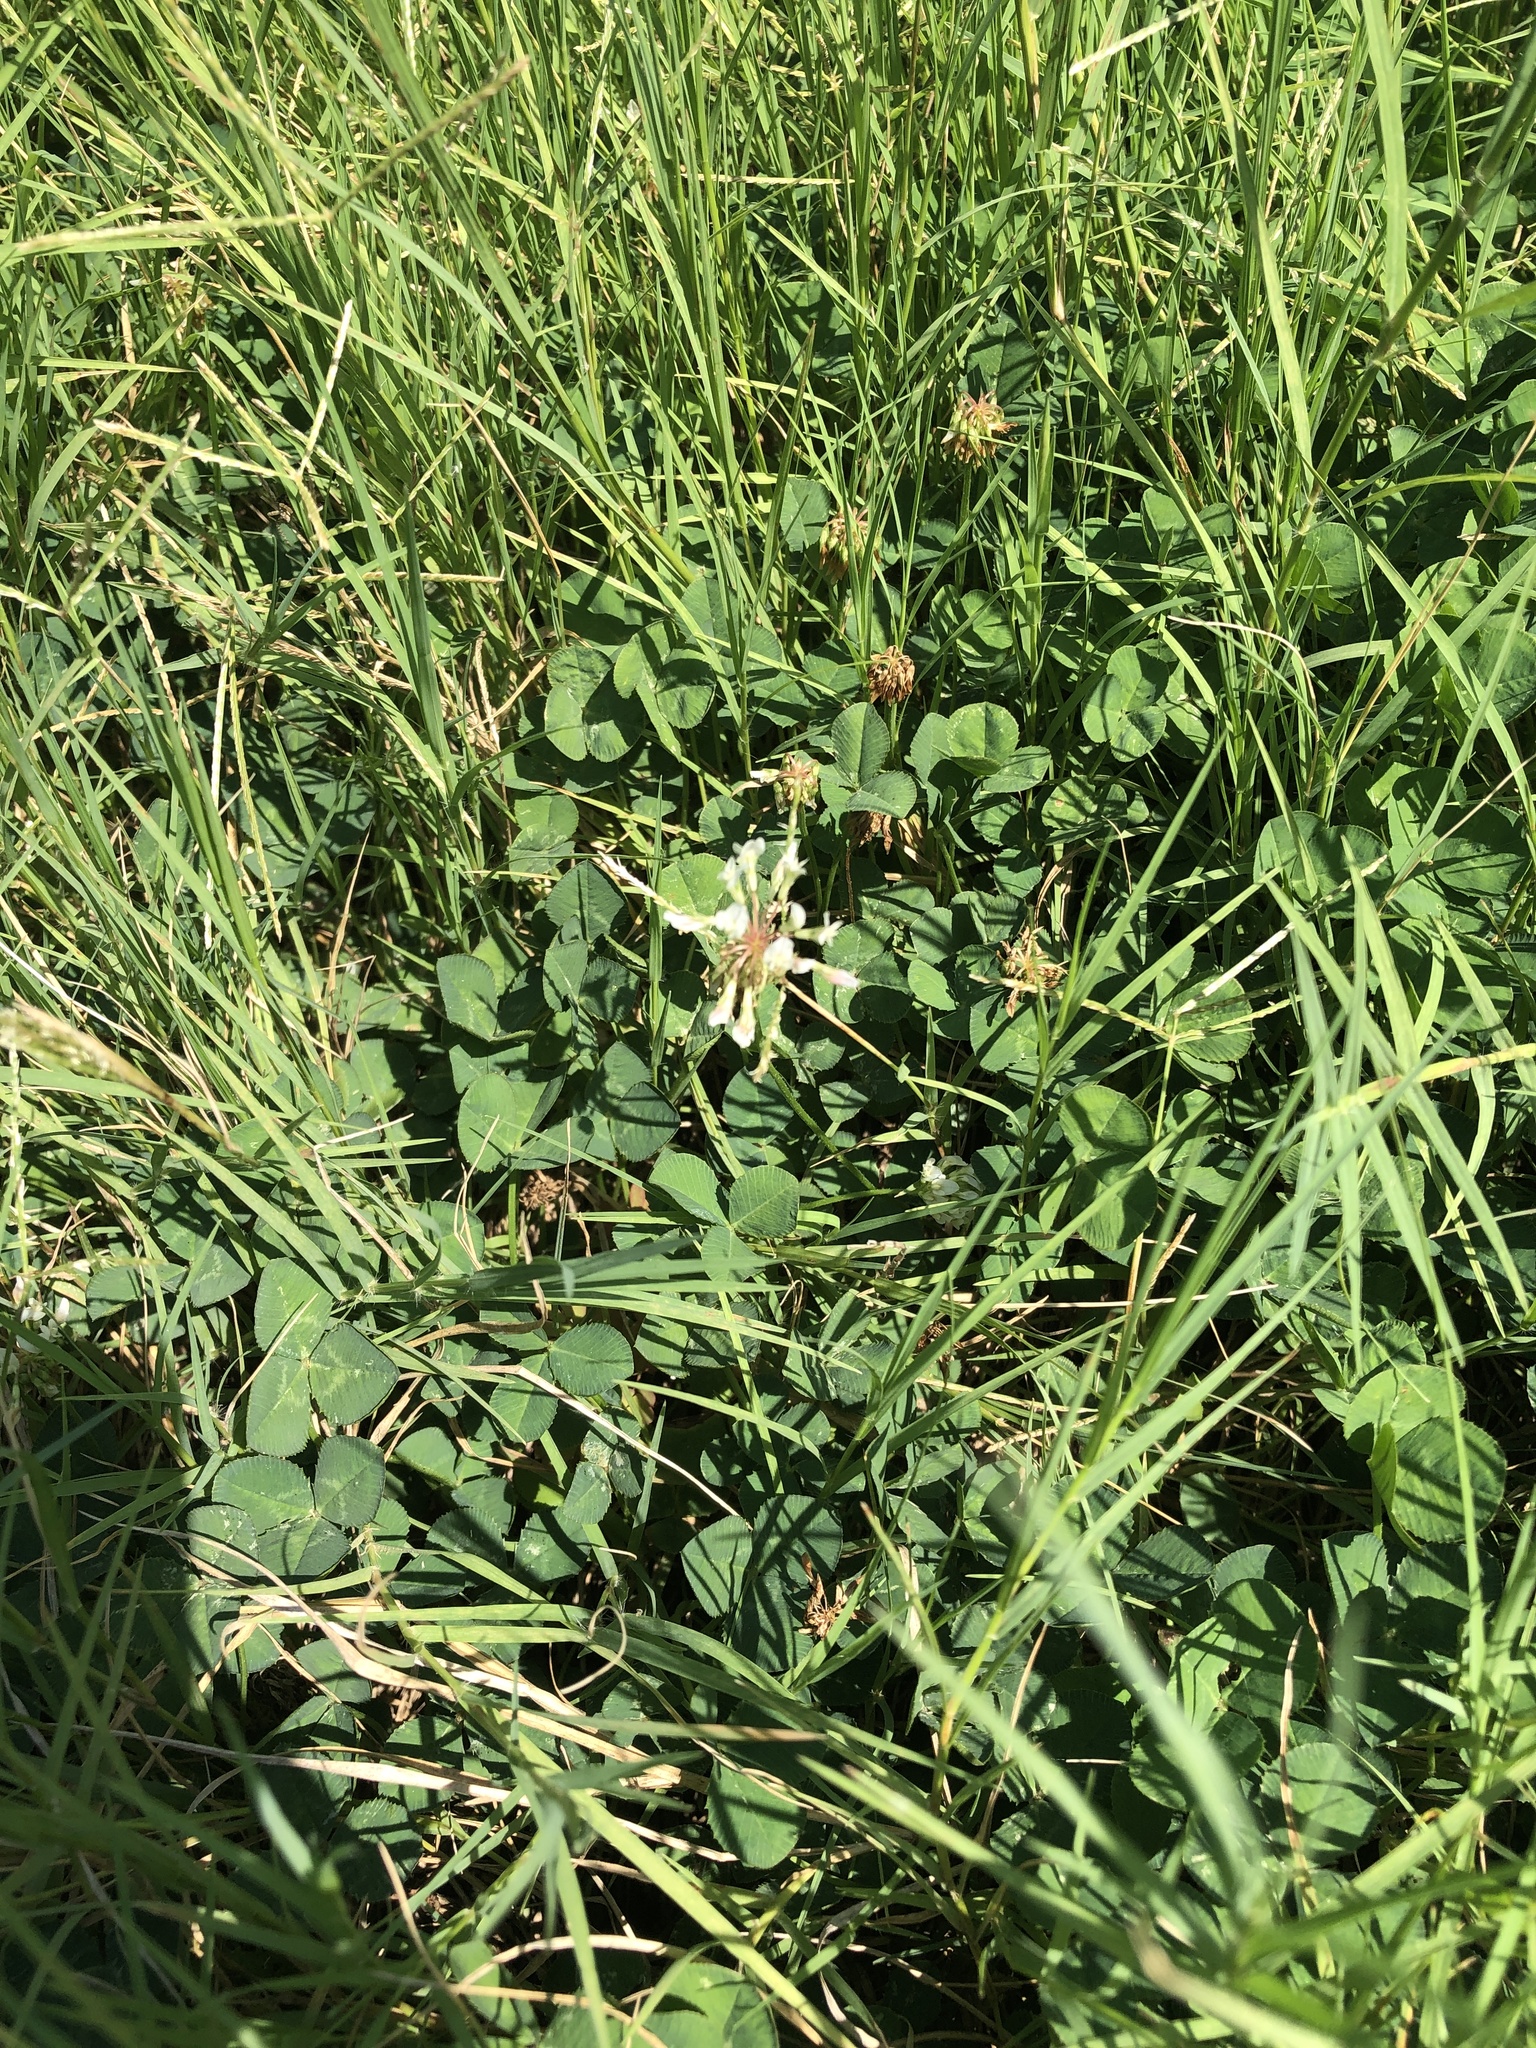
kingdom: Plantae
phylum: Tracheophyta
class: Magnoliopsida
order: Fabales
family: Fabaceae
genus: Trifolium
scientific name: Trifolium repens
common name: White clover
